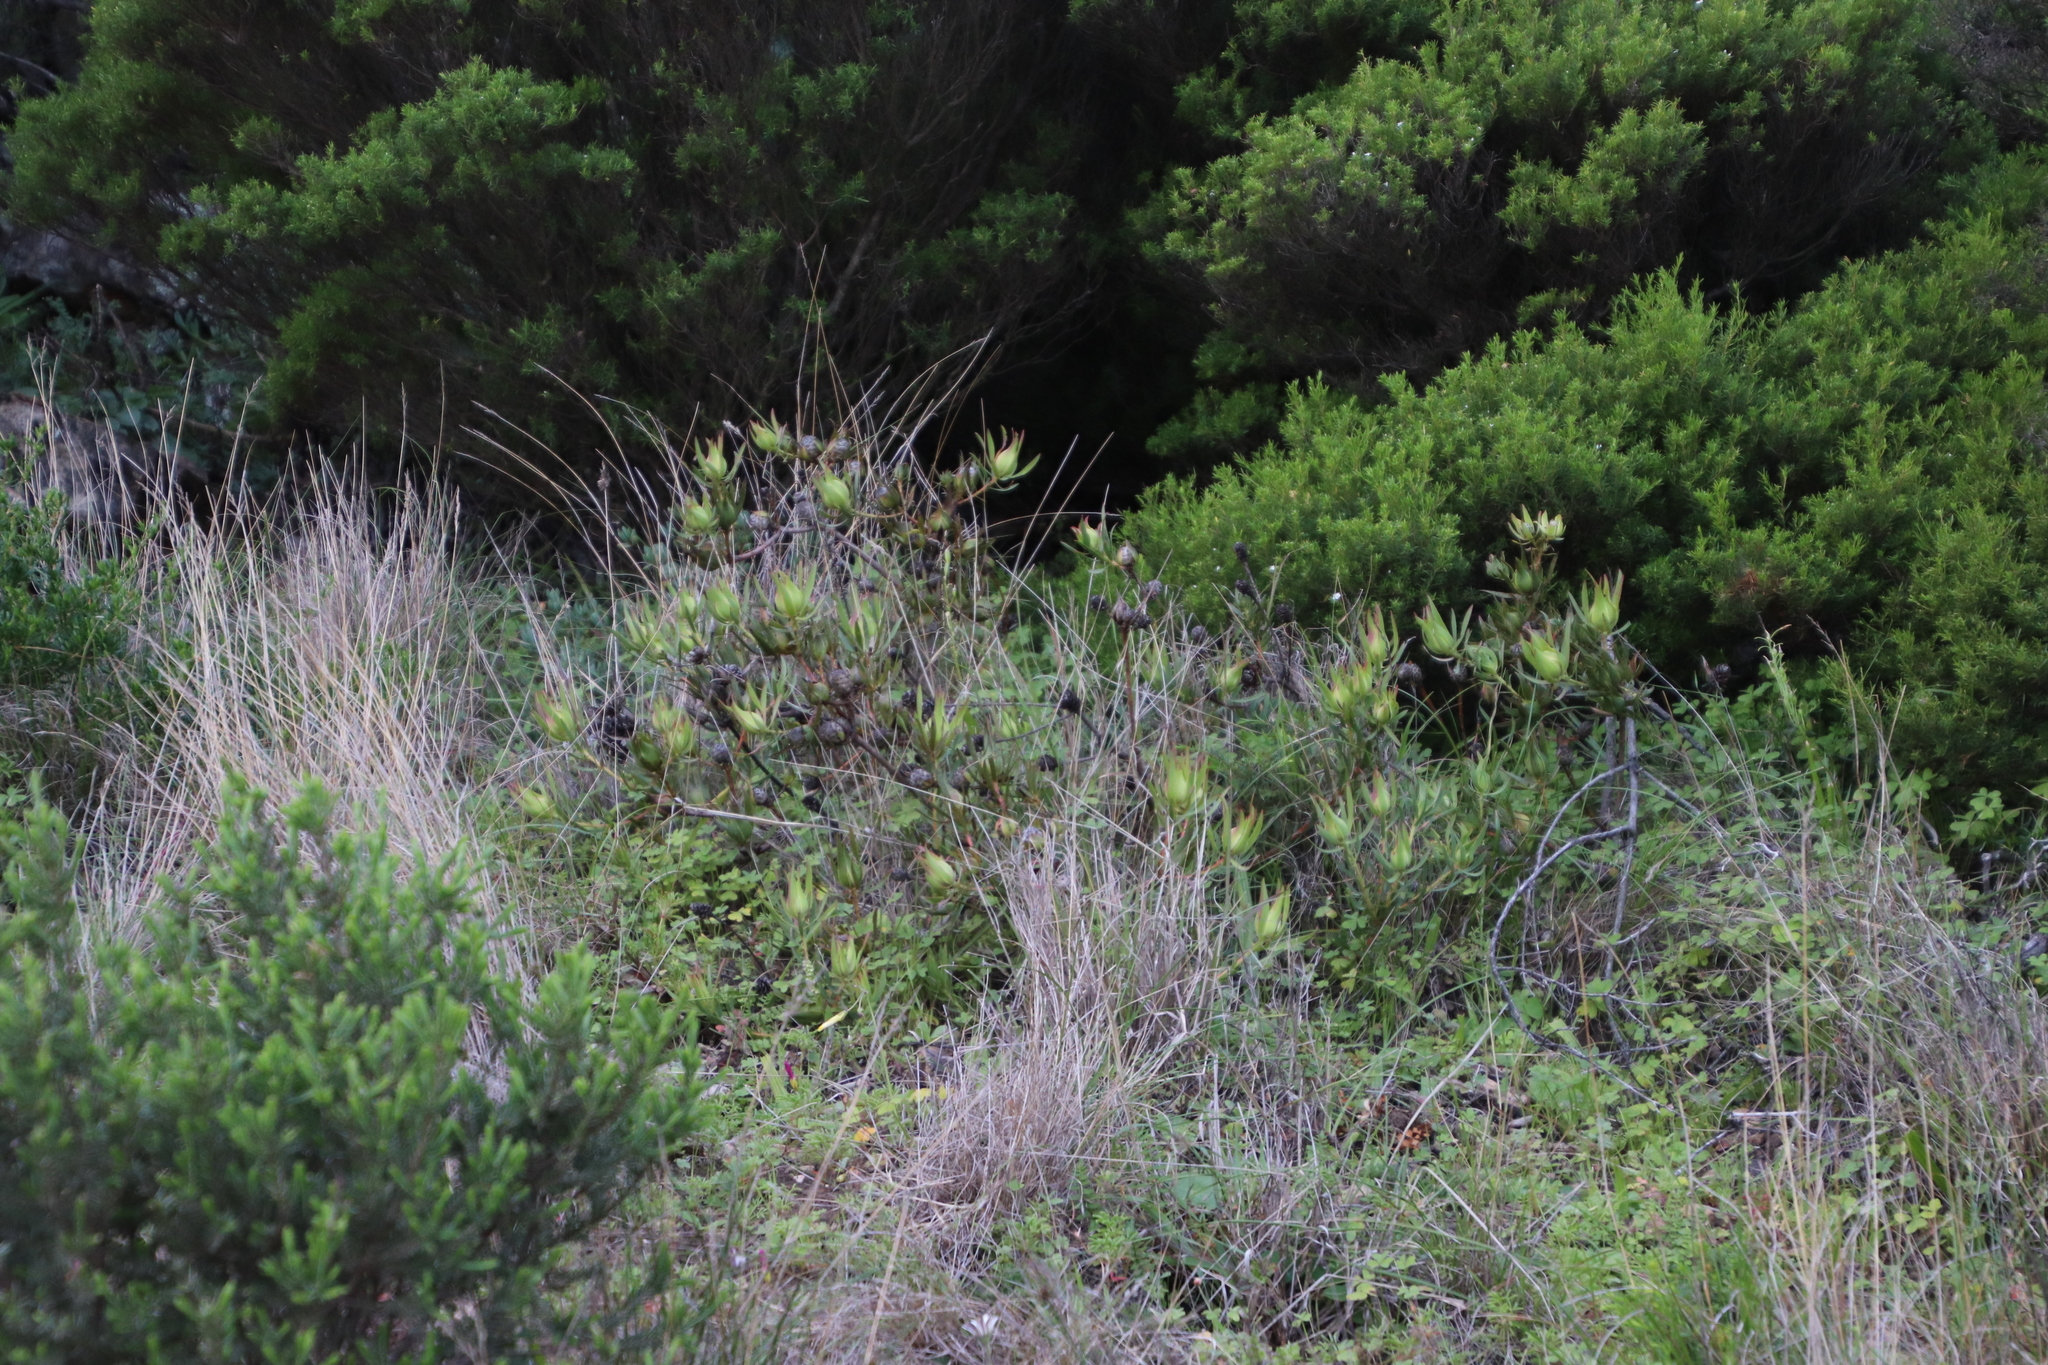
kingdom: Plantae
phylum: Tracheophyta
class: Magnoliopsida
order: Proteales
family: Proteaceae
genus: Leucadendron
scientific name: Leucadendron salignum
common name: Common sunshine conebush
